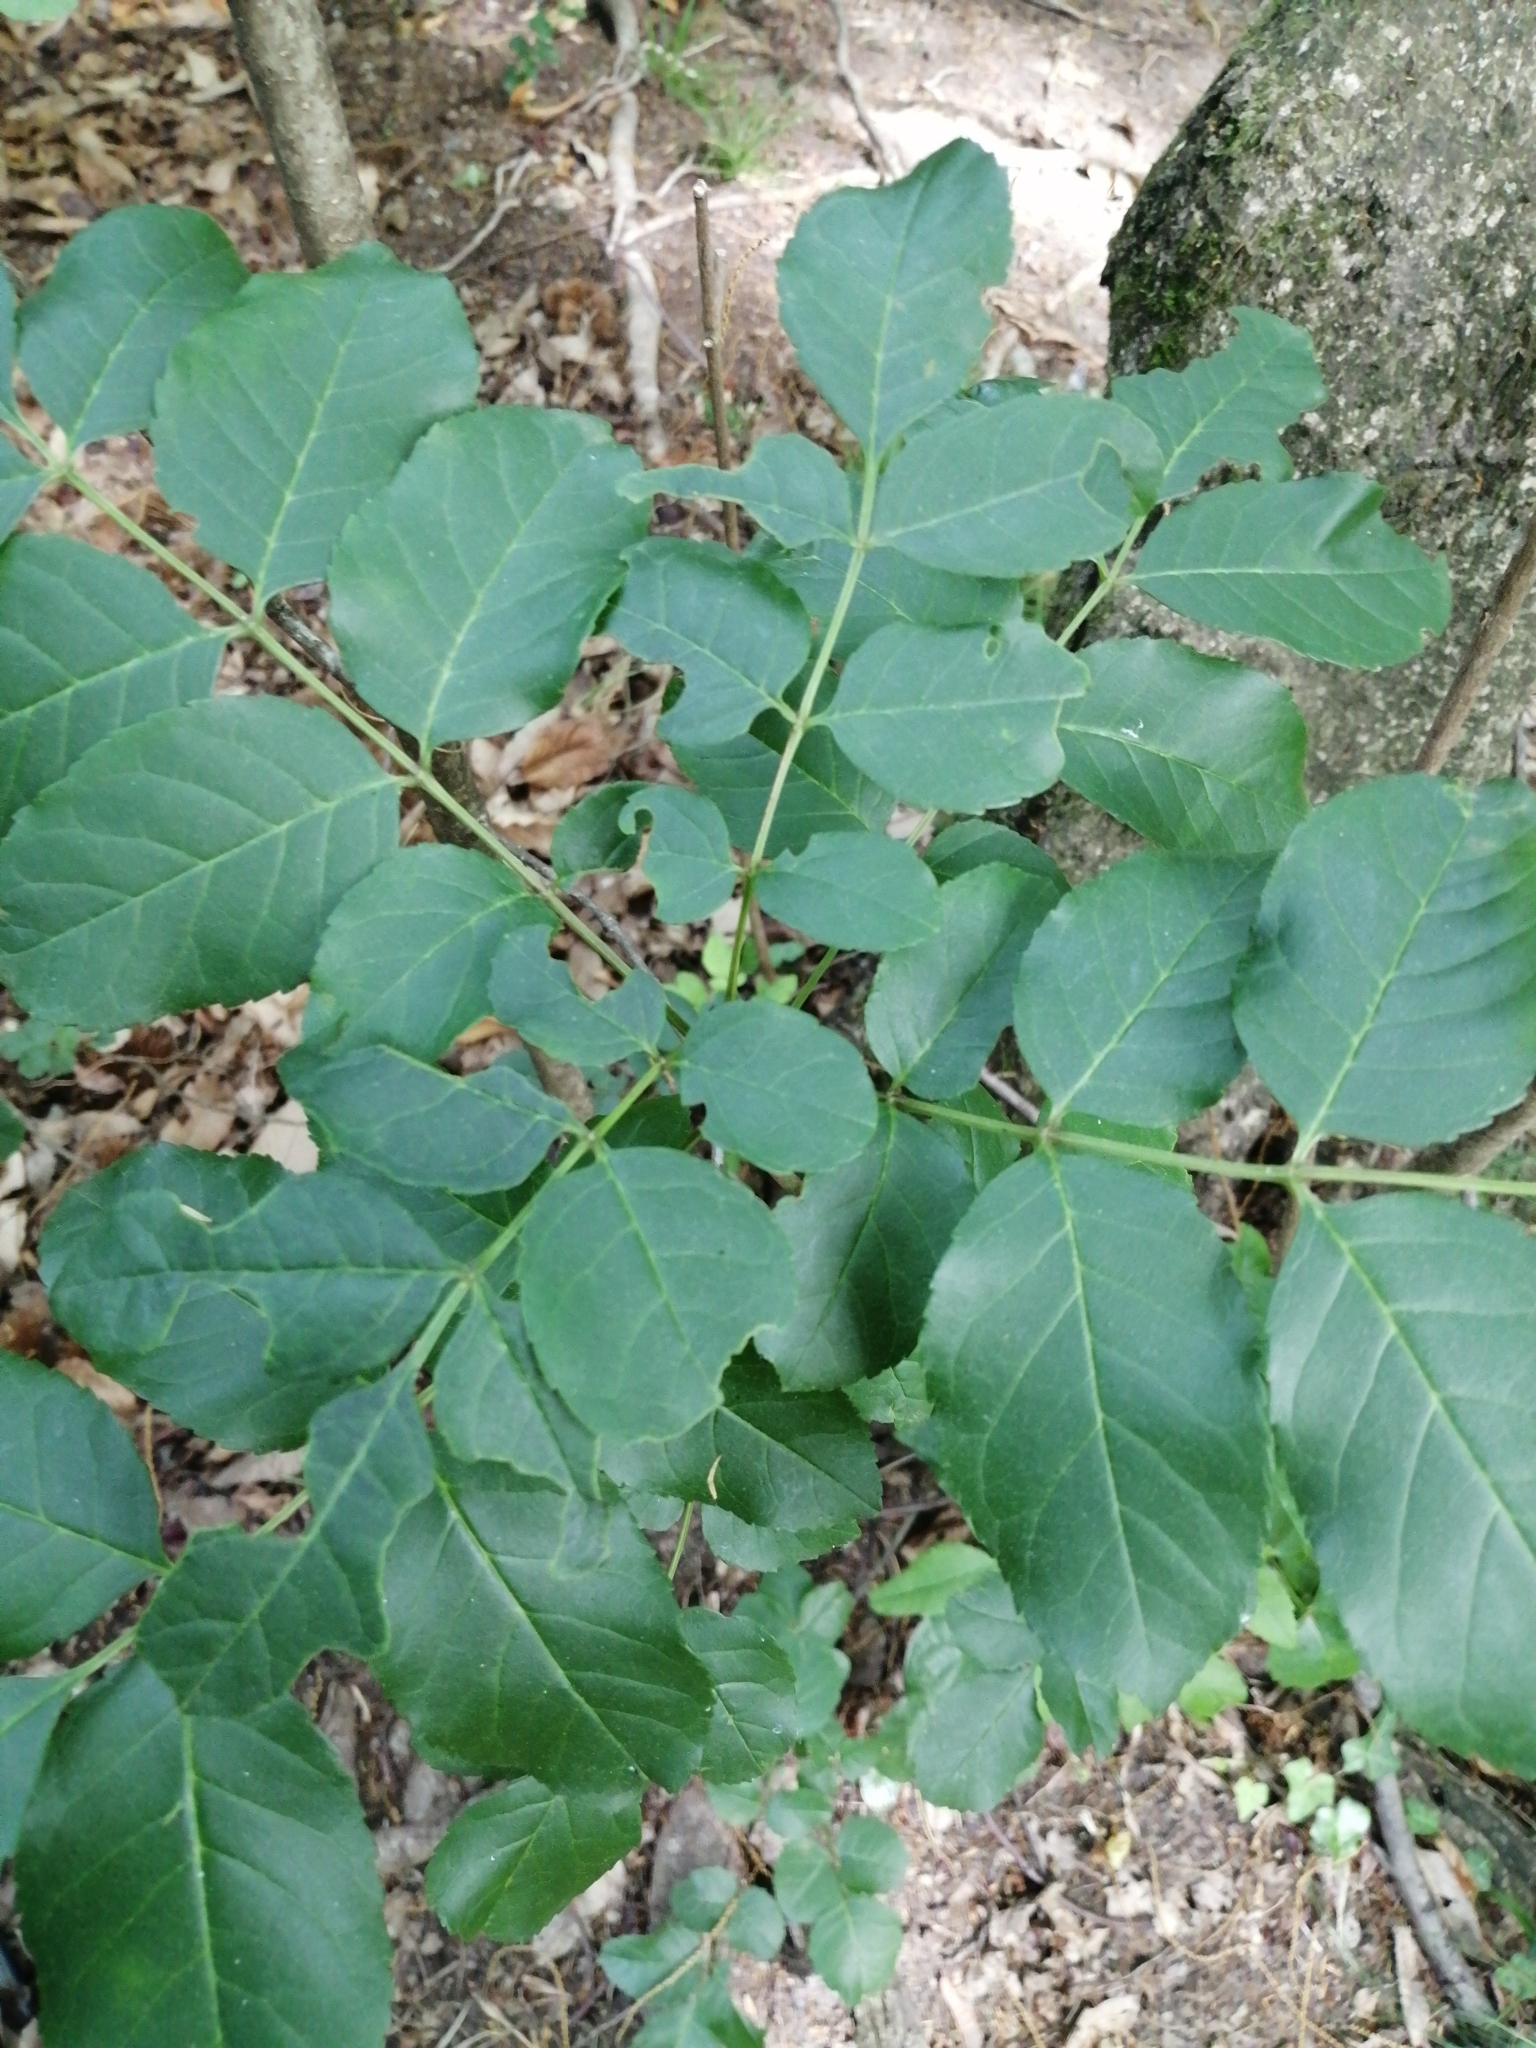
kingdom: Plantae
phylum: Tracheophyta
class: Magnoliopsida
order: Lamiales
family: Oleaceae
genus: Fraxinus
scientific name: Fraxinus ornus
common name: Manna ash
